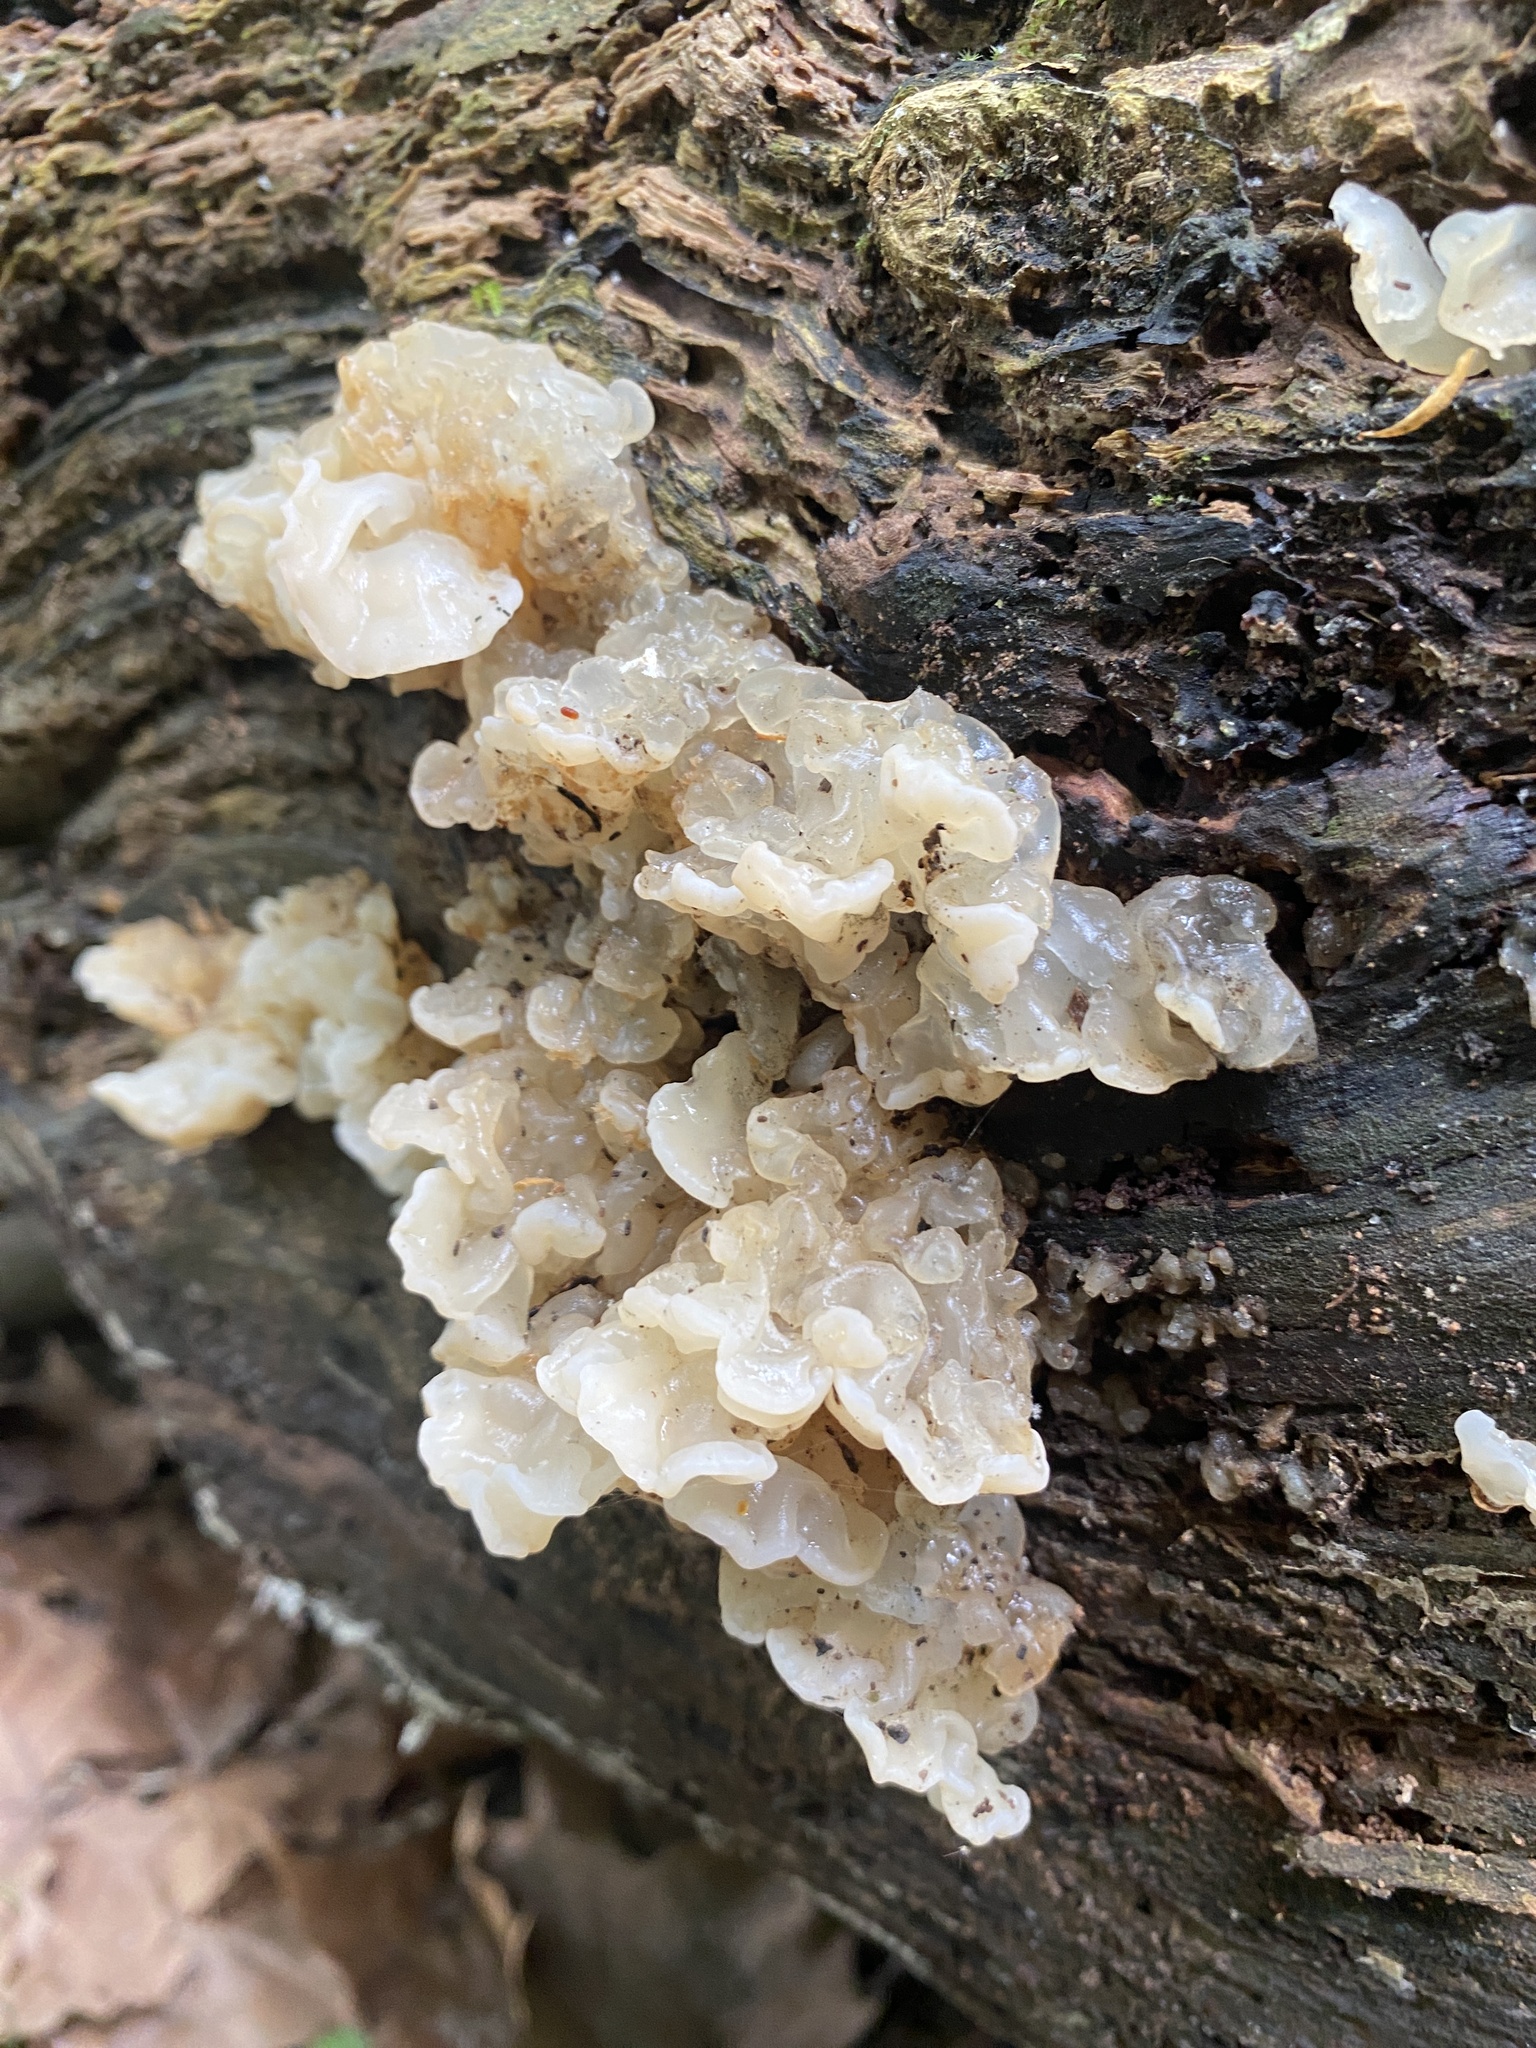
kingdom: Fungi
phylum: Basidiomycota
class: Agaricomycetes
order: Auriculariales
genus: Ductifera
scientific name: Ductifera pululahuana
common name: White jelly fungus
